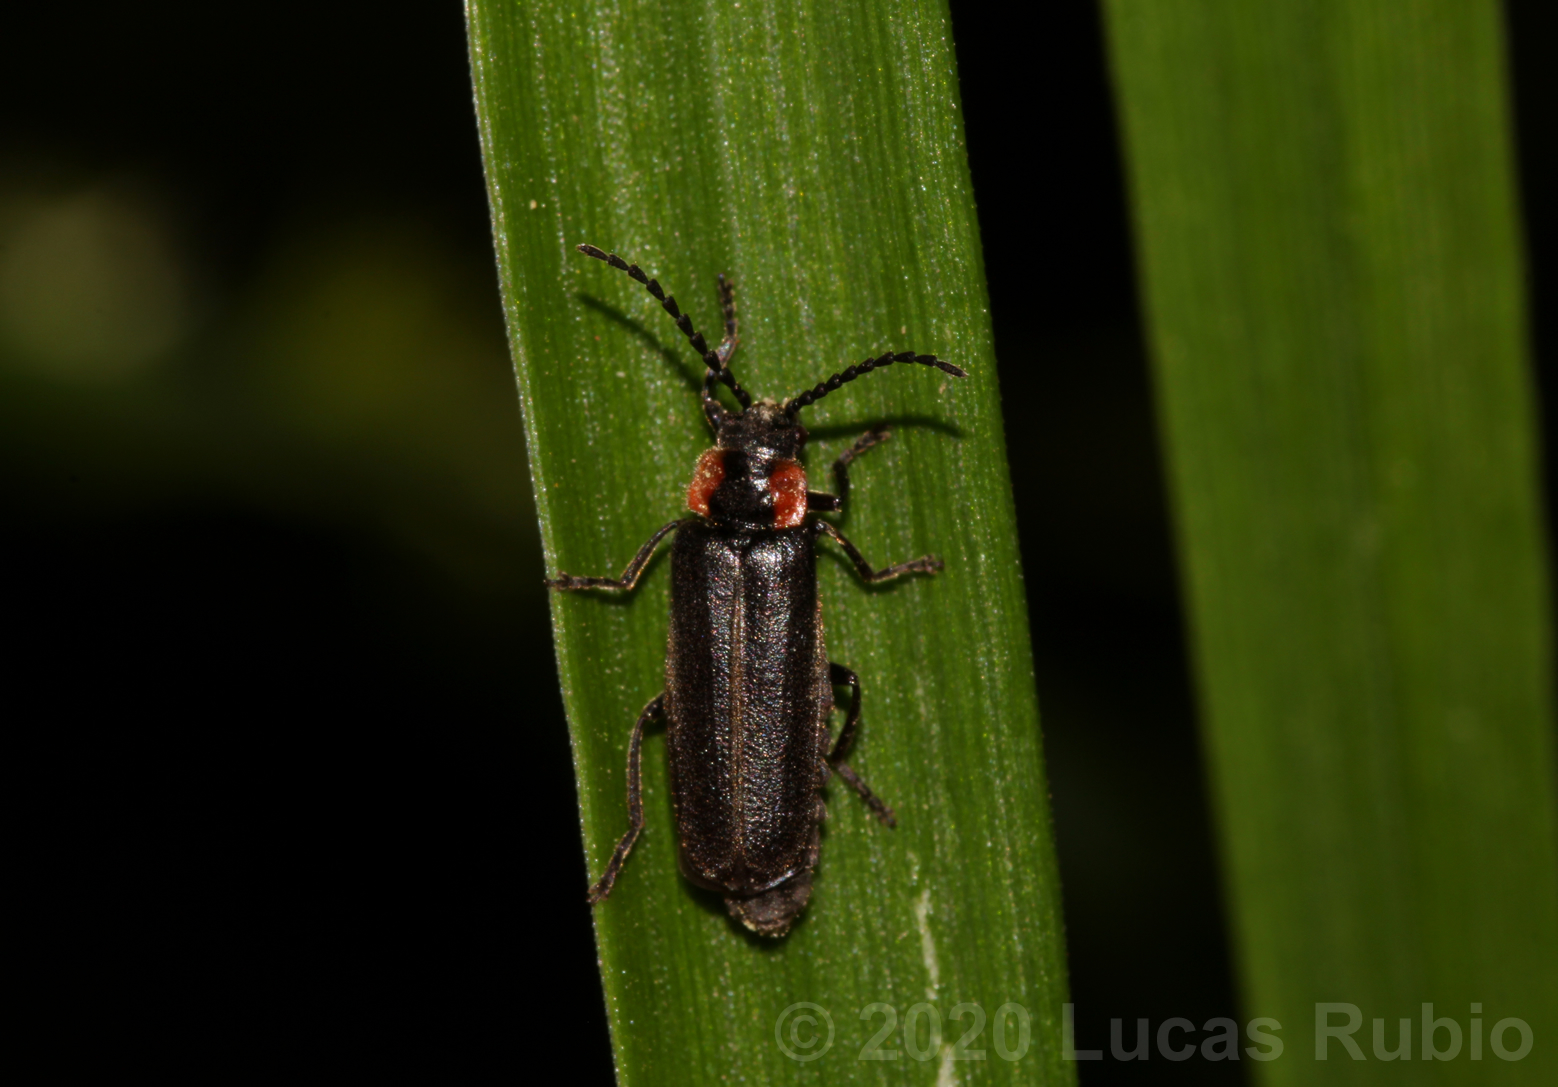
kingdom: Animalia
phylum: Arthropoda
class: Insecta
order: Coleoptera
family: Cantharidae
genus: Polemius
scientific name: Polemius
